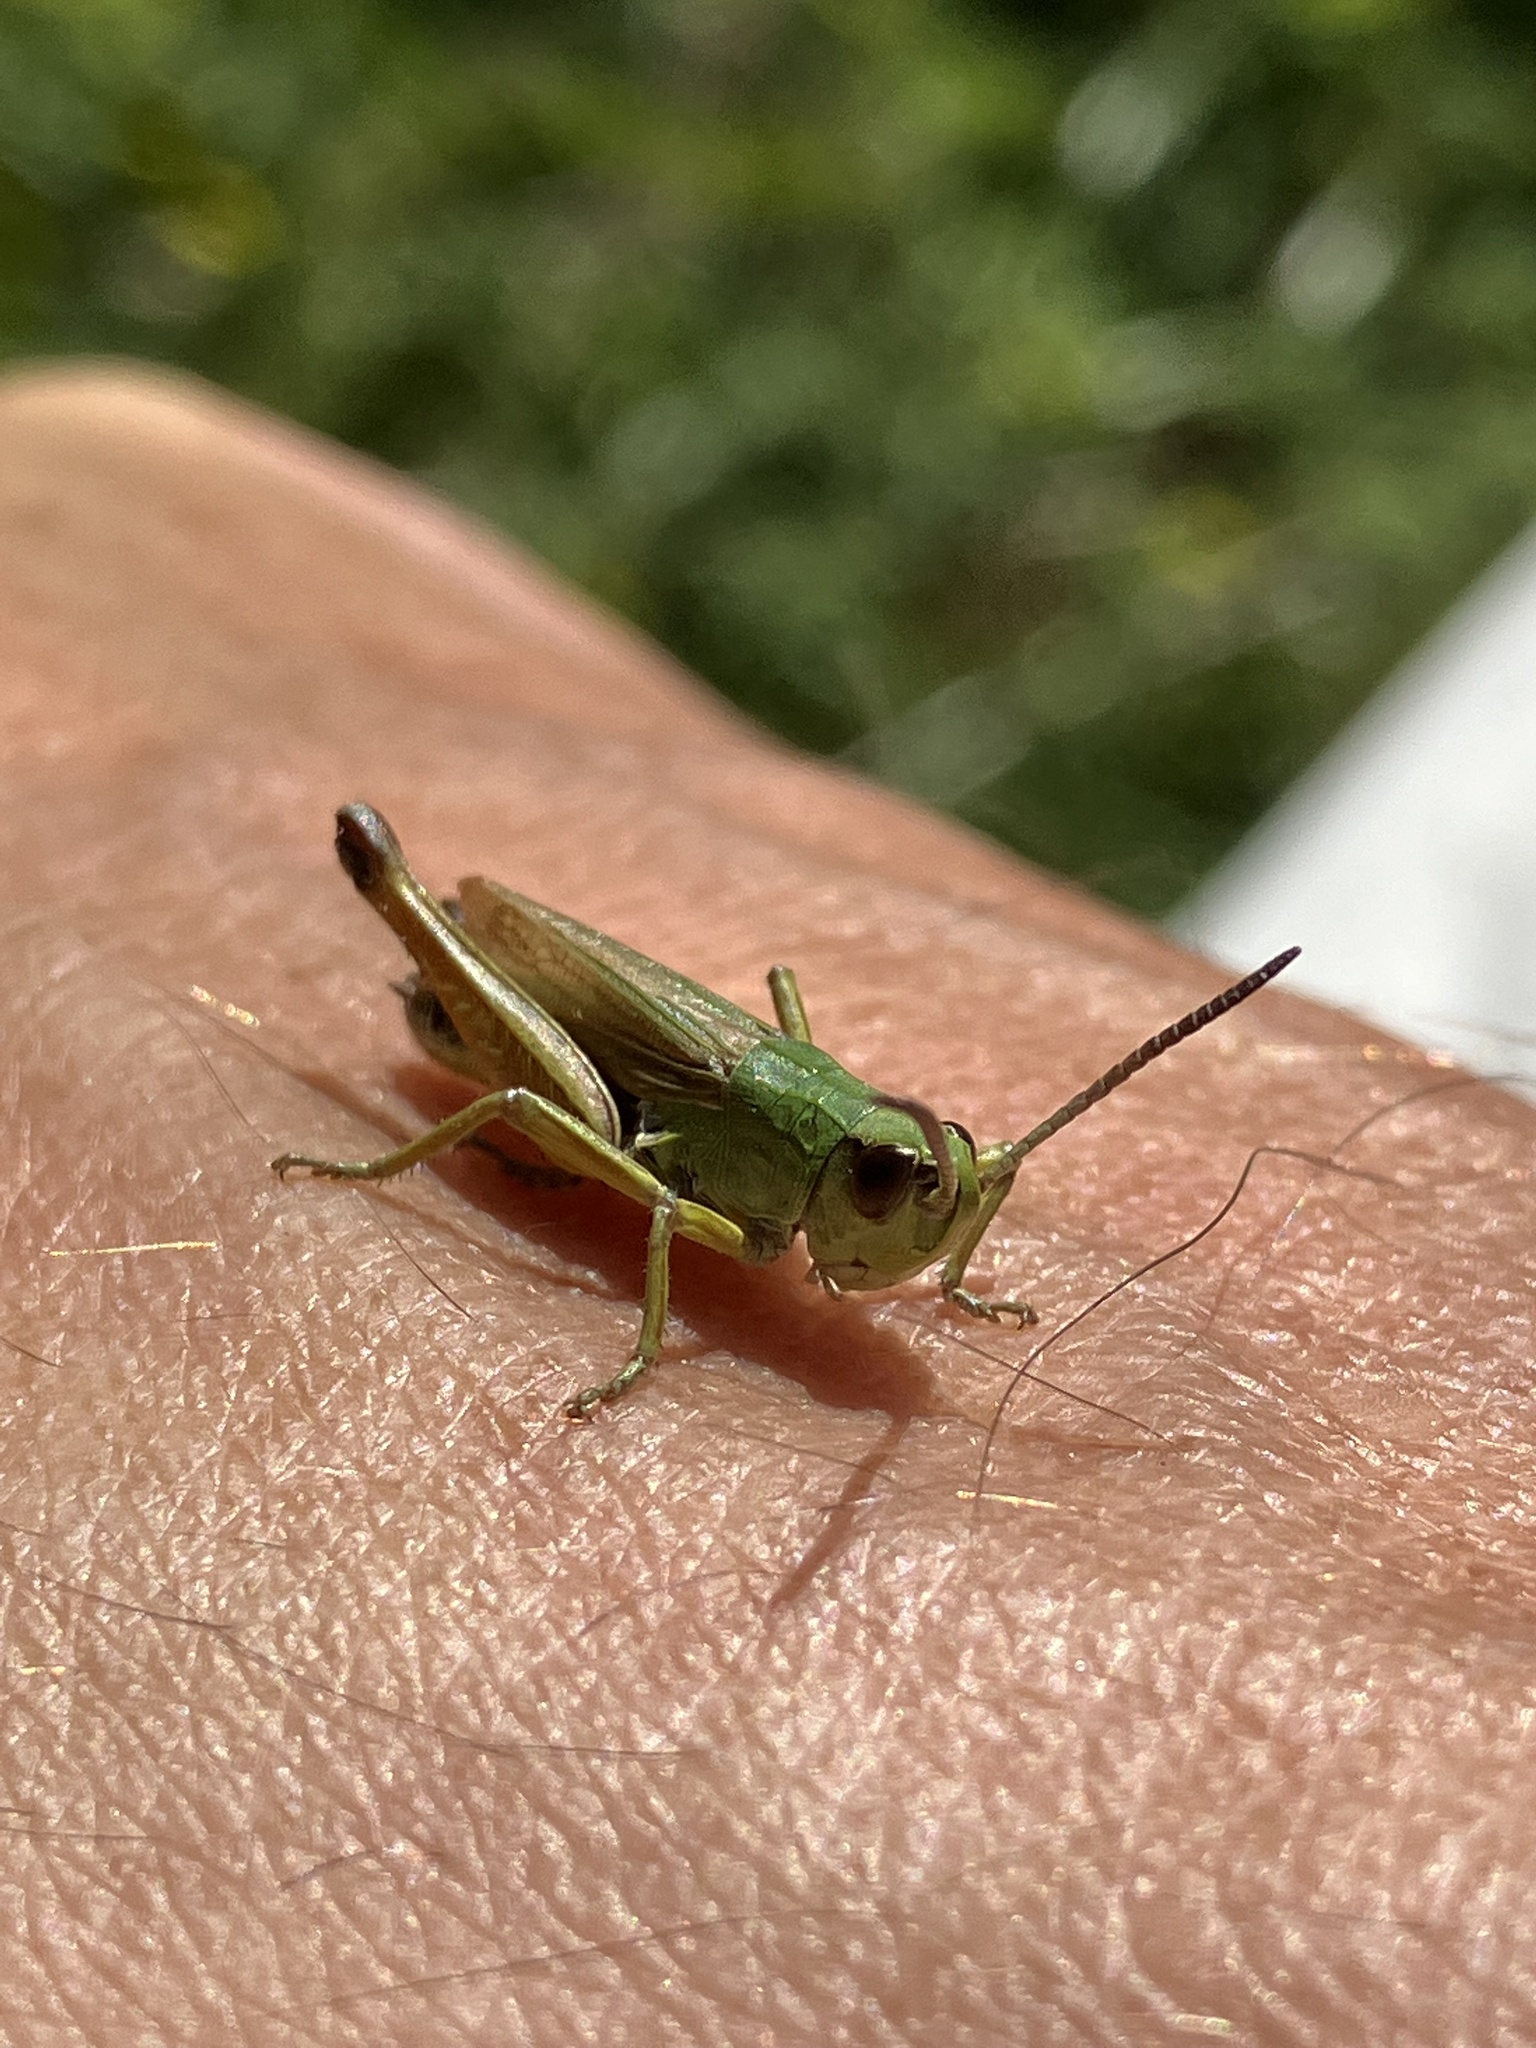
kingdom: Animalia
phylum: Arthropoda
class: Insecta
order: Orthoptera
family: Acrididae
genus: Pseudochorthippus
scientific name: Pseudochorthippus parallelus
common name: Meadow grasshopper
